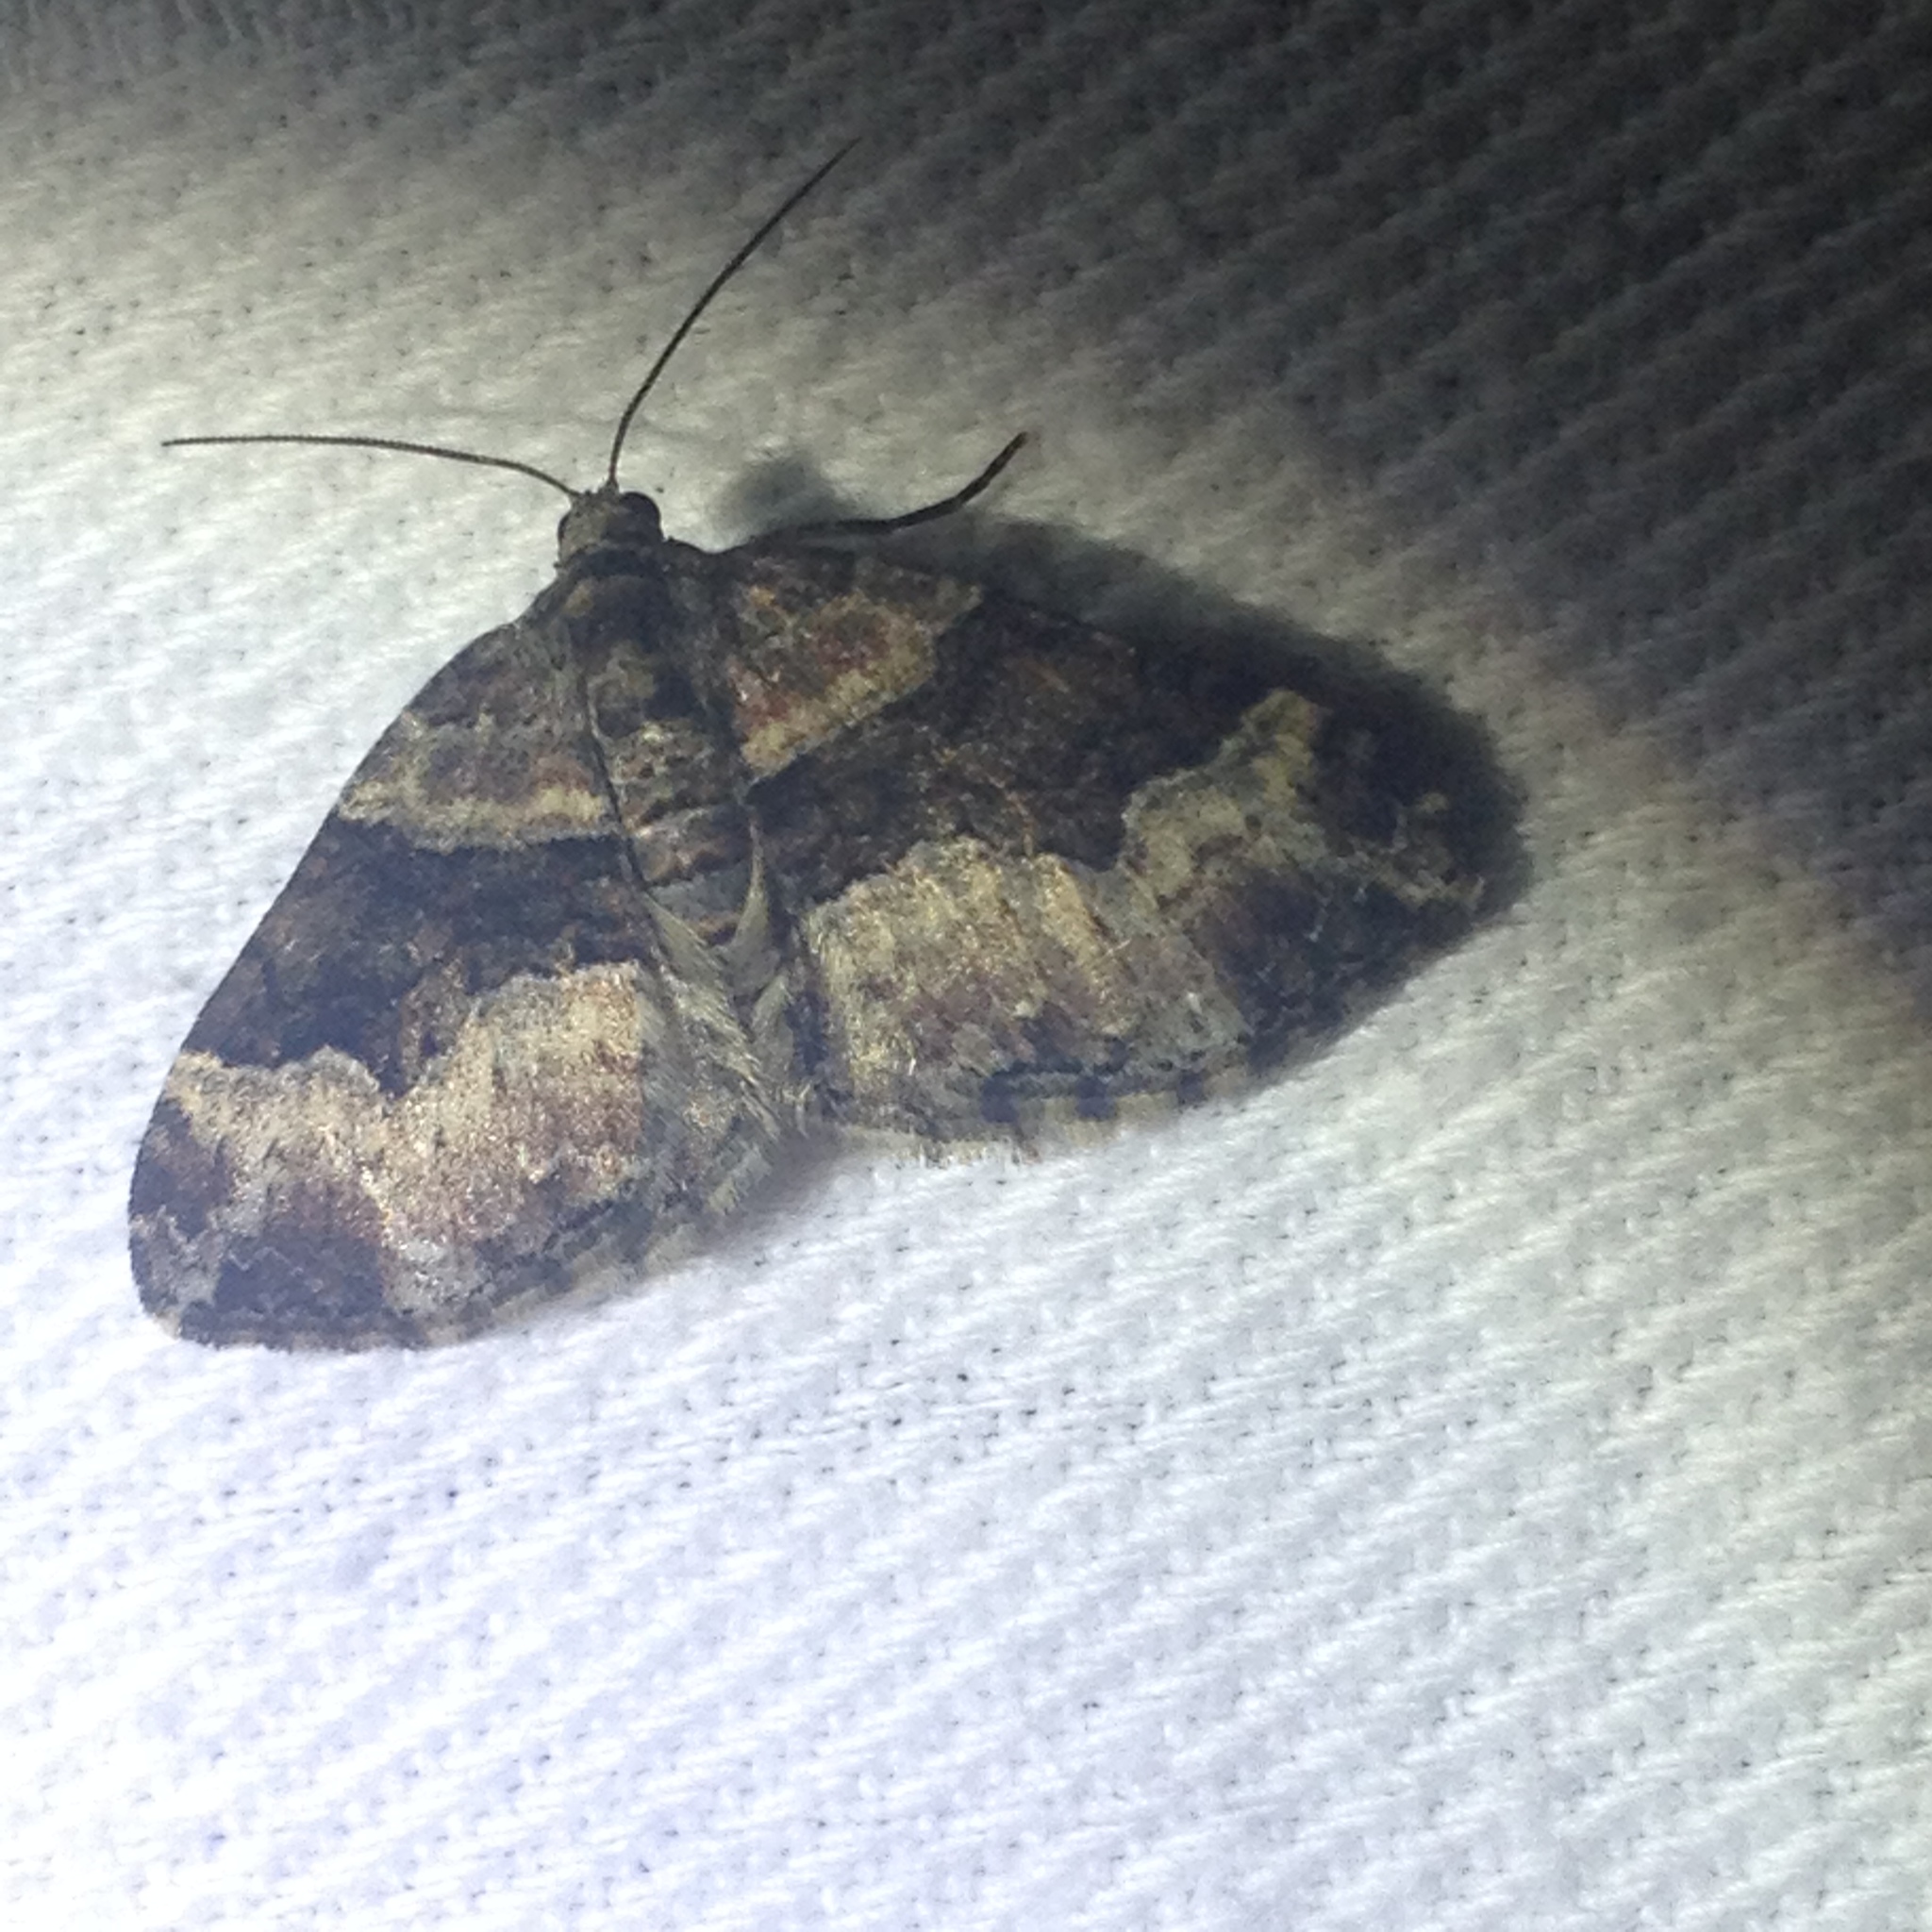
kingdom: Animalia
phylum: Arthropoda
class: Insecta
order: Lepidoptera
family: Geometridae
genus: Xanthorhoe
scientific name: Xanthorhoe lacustrata
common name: Toothed brown carpet
